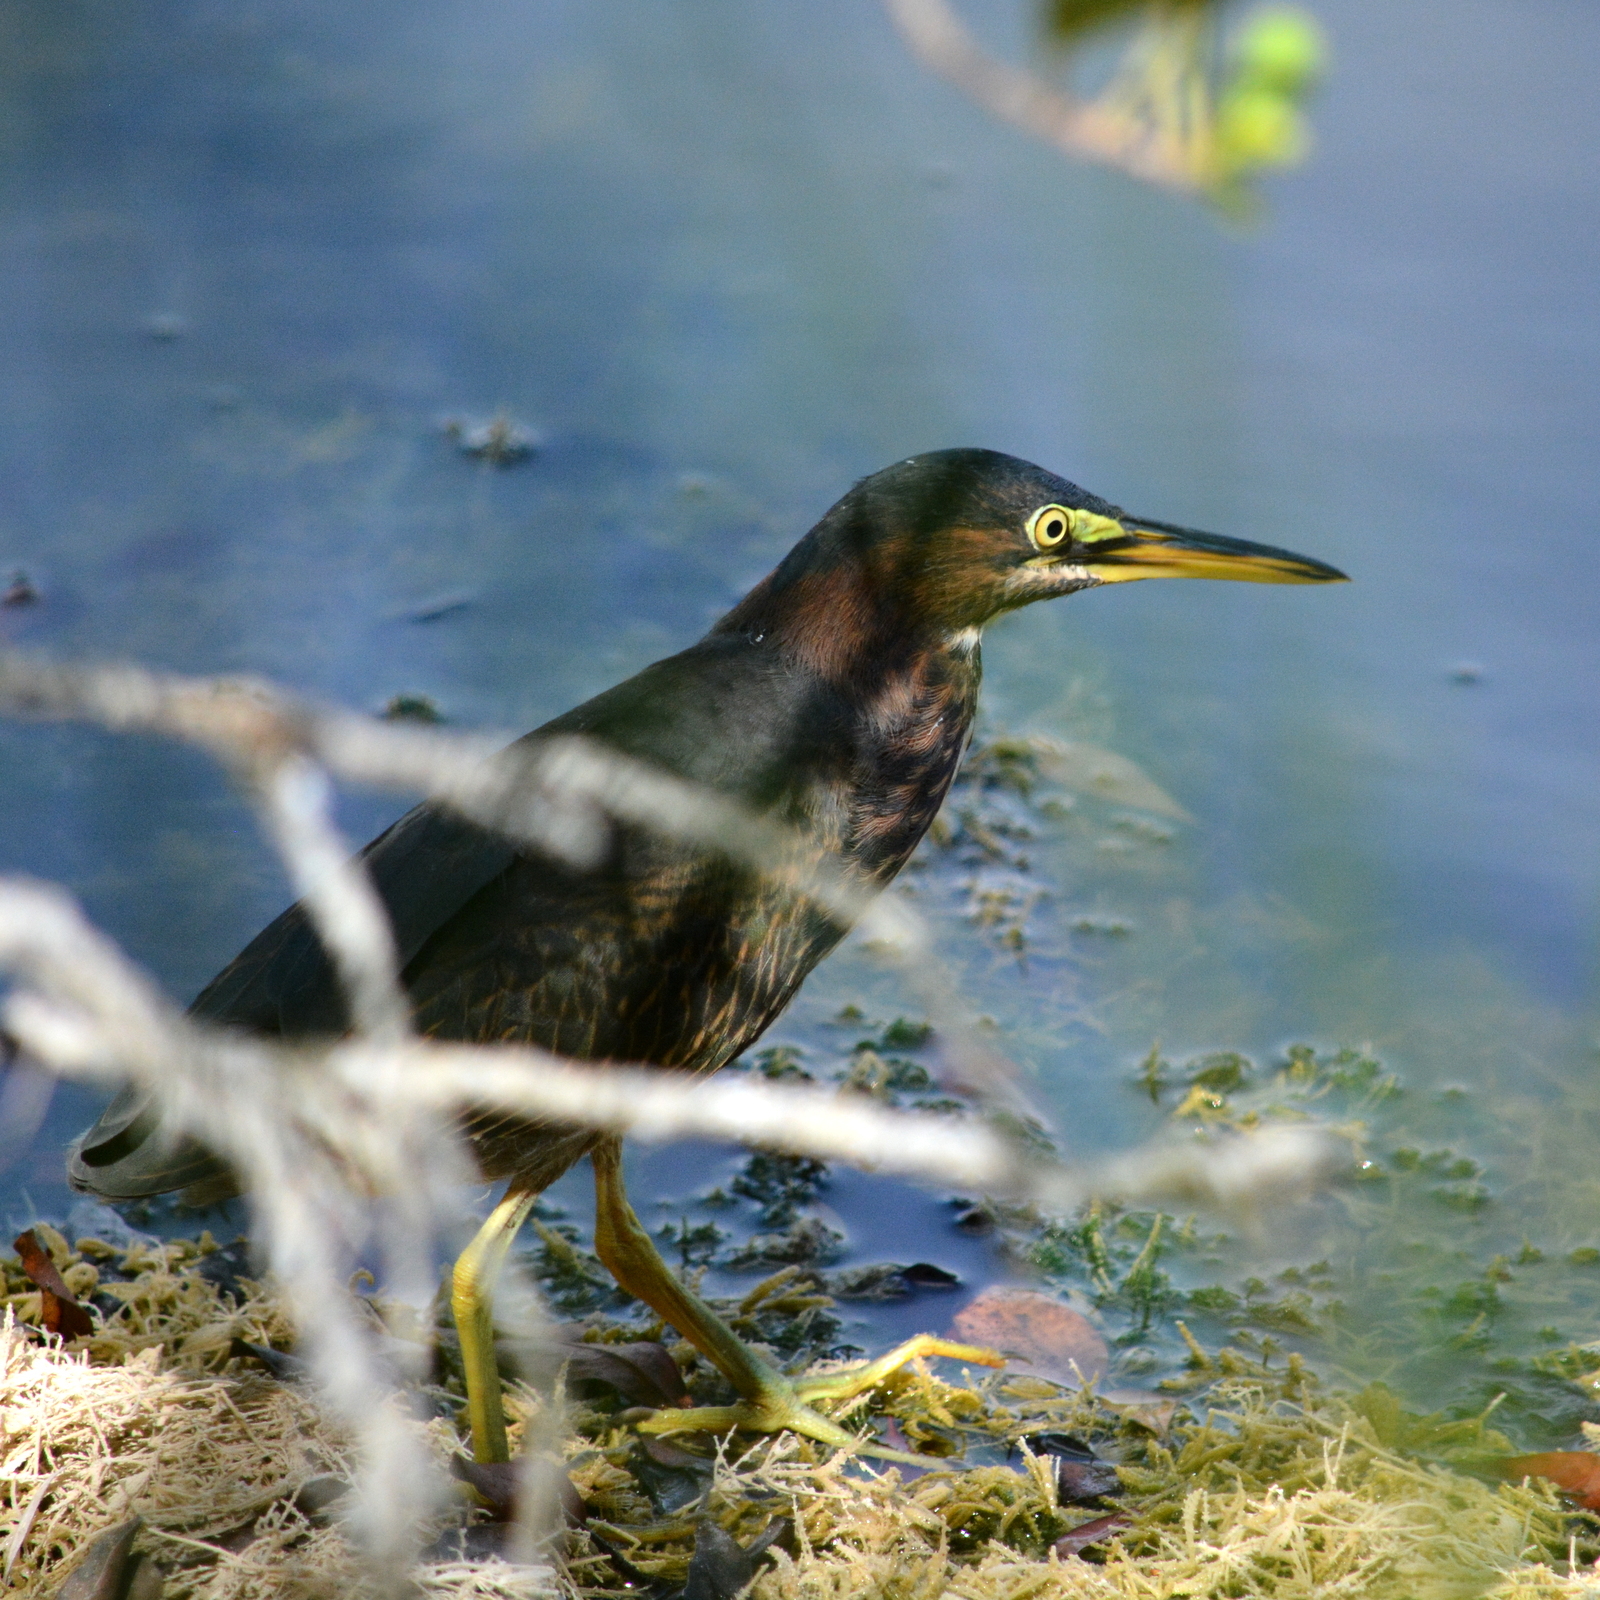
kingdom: Animalia
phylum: Chordata
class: Aves
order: Pelecaniformes
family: Ardeidae
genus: Butorides
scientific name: Butorides virescens
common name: Green heron
